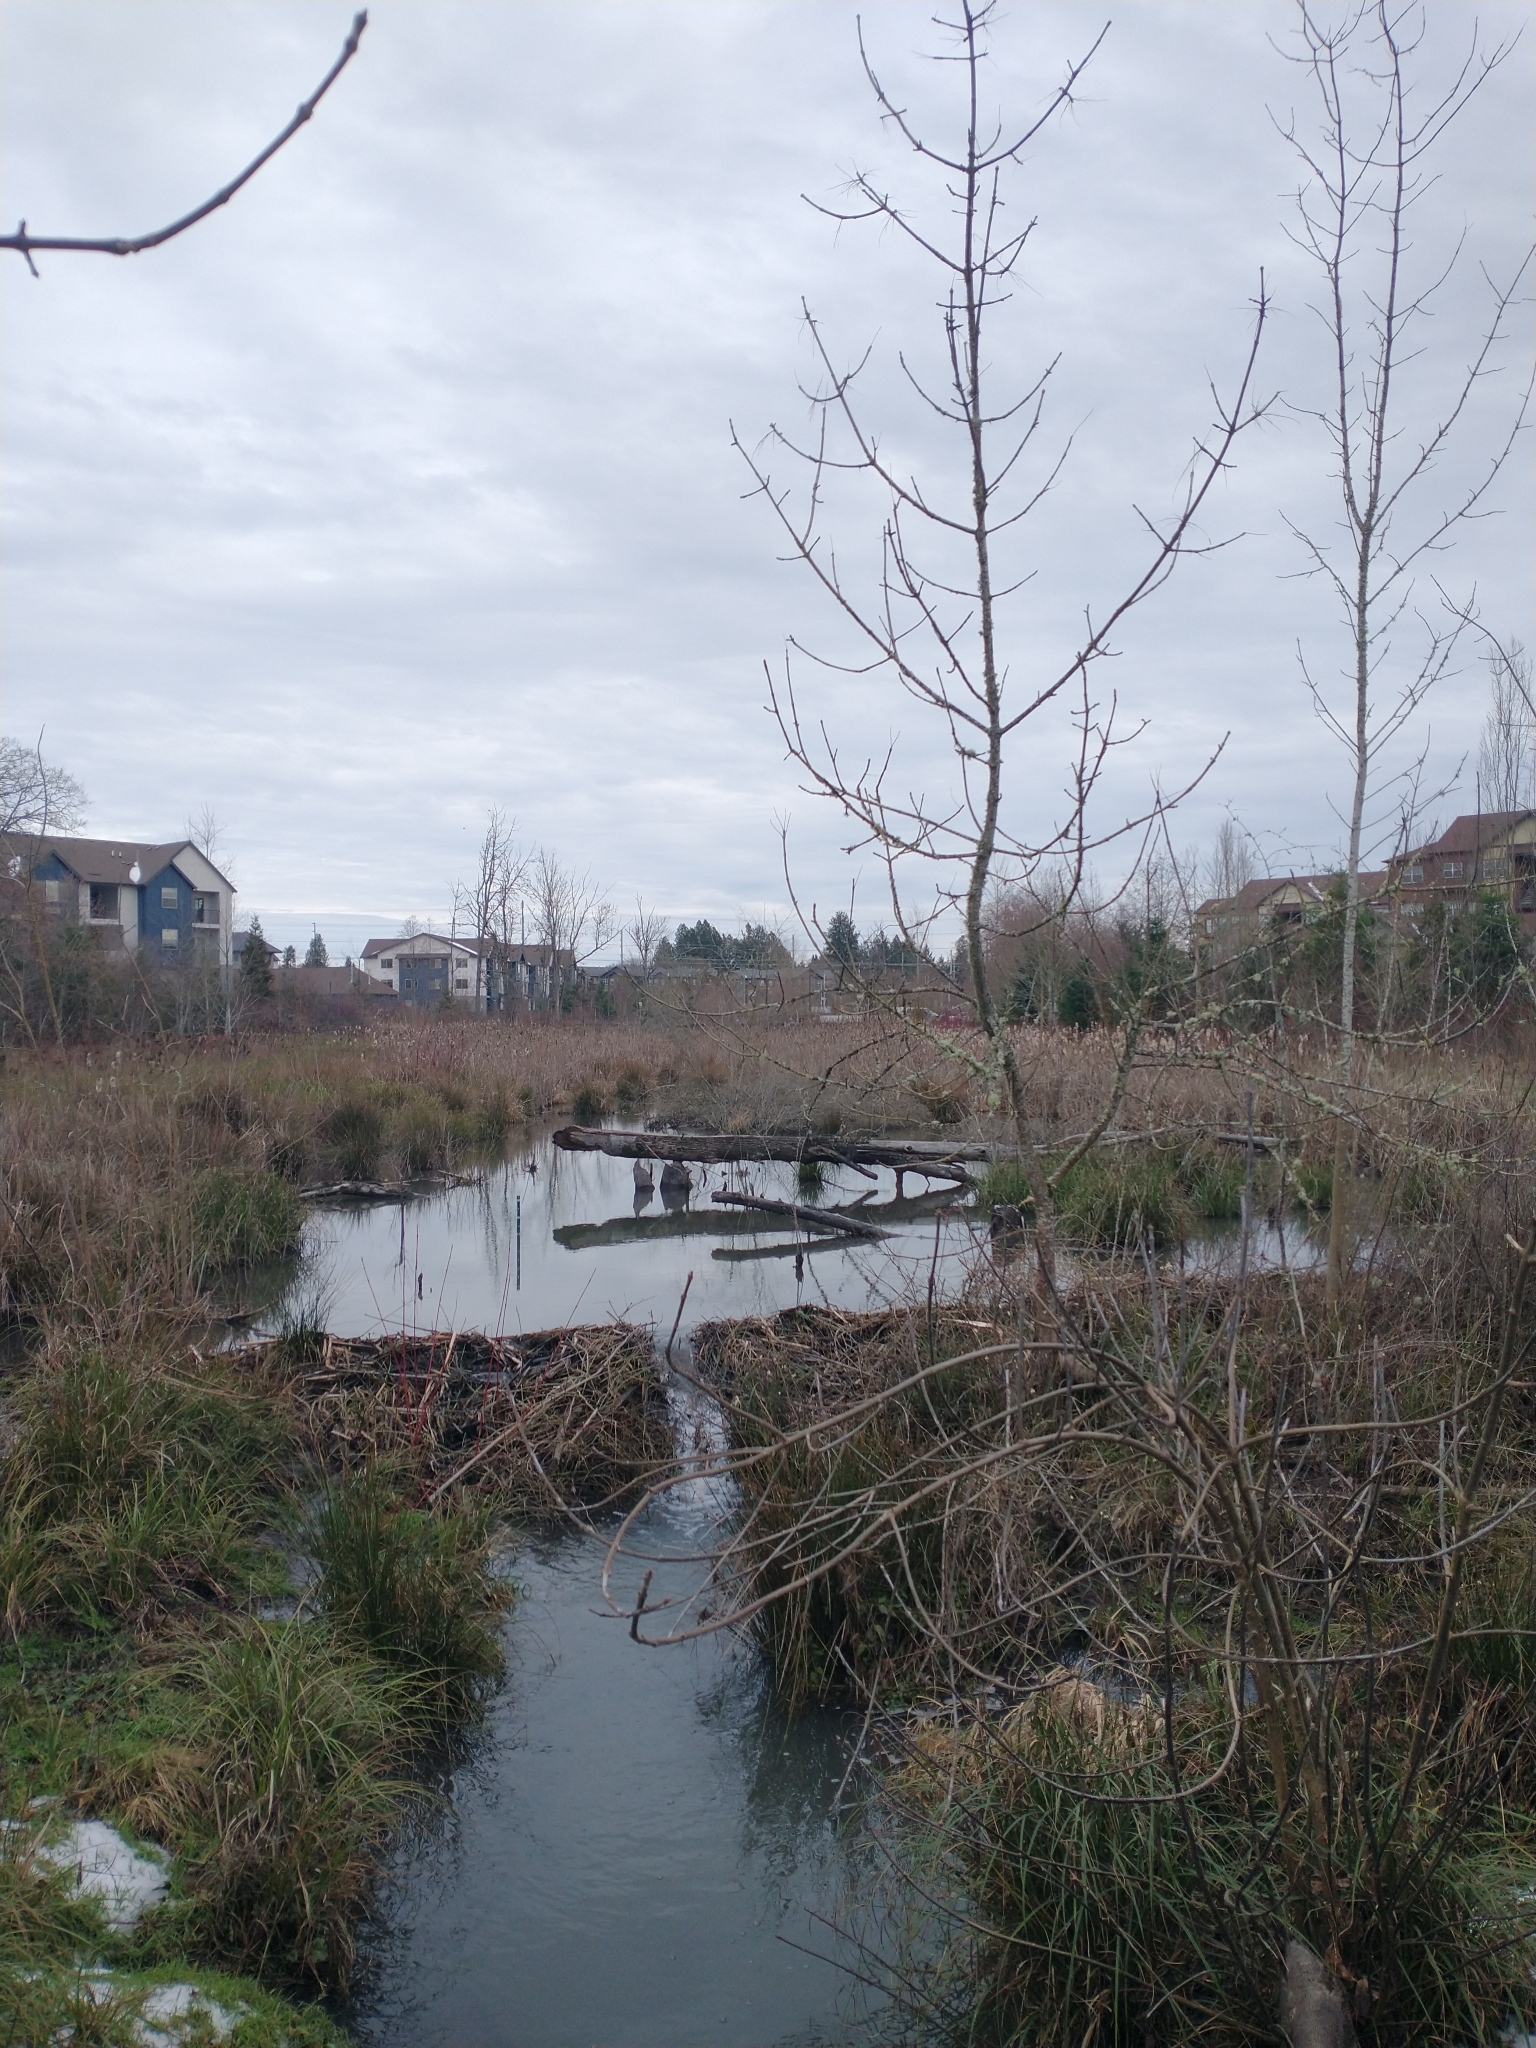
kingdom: Plantae
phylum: Tracheophyta
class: Magnoliopsida
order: Lamiales
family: Oleaceae
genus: Fraxinus
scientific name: Fraxinus latifolia
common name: Oregon ash
